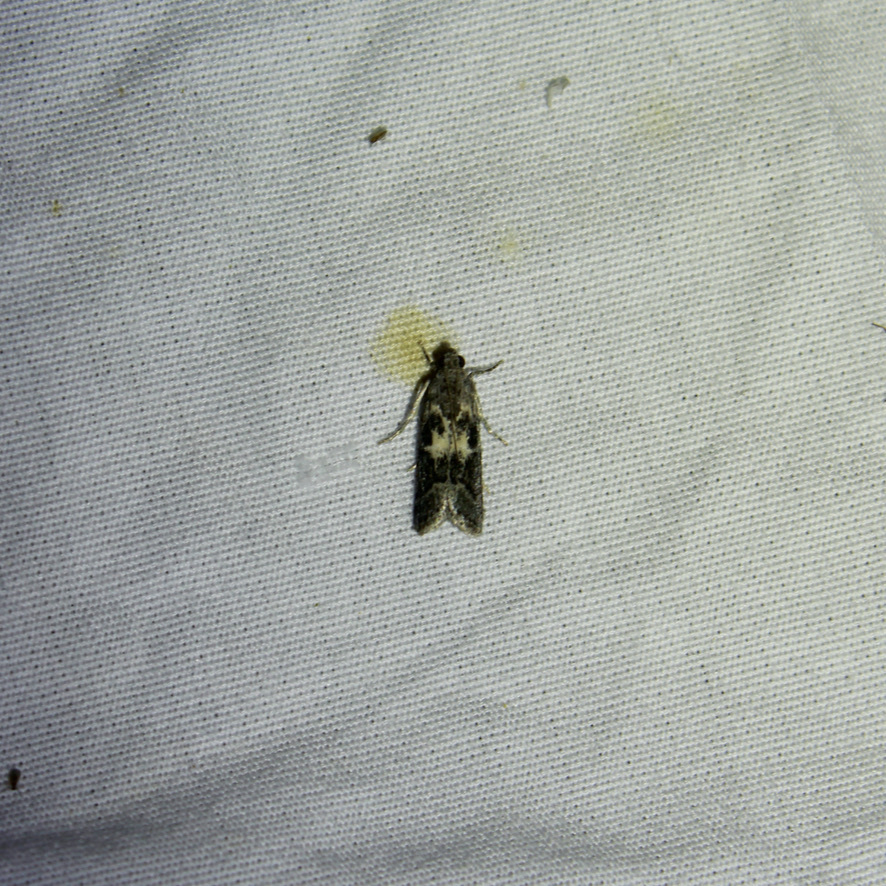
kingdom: Animalia
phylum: Arthropoda
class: Insecta
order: Lepidoptera
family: Pyralidae
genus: Tacoma
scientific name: Tacoma feriella
